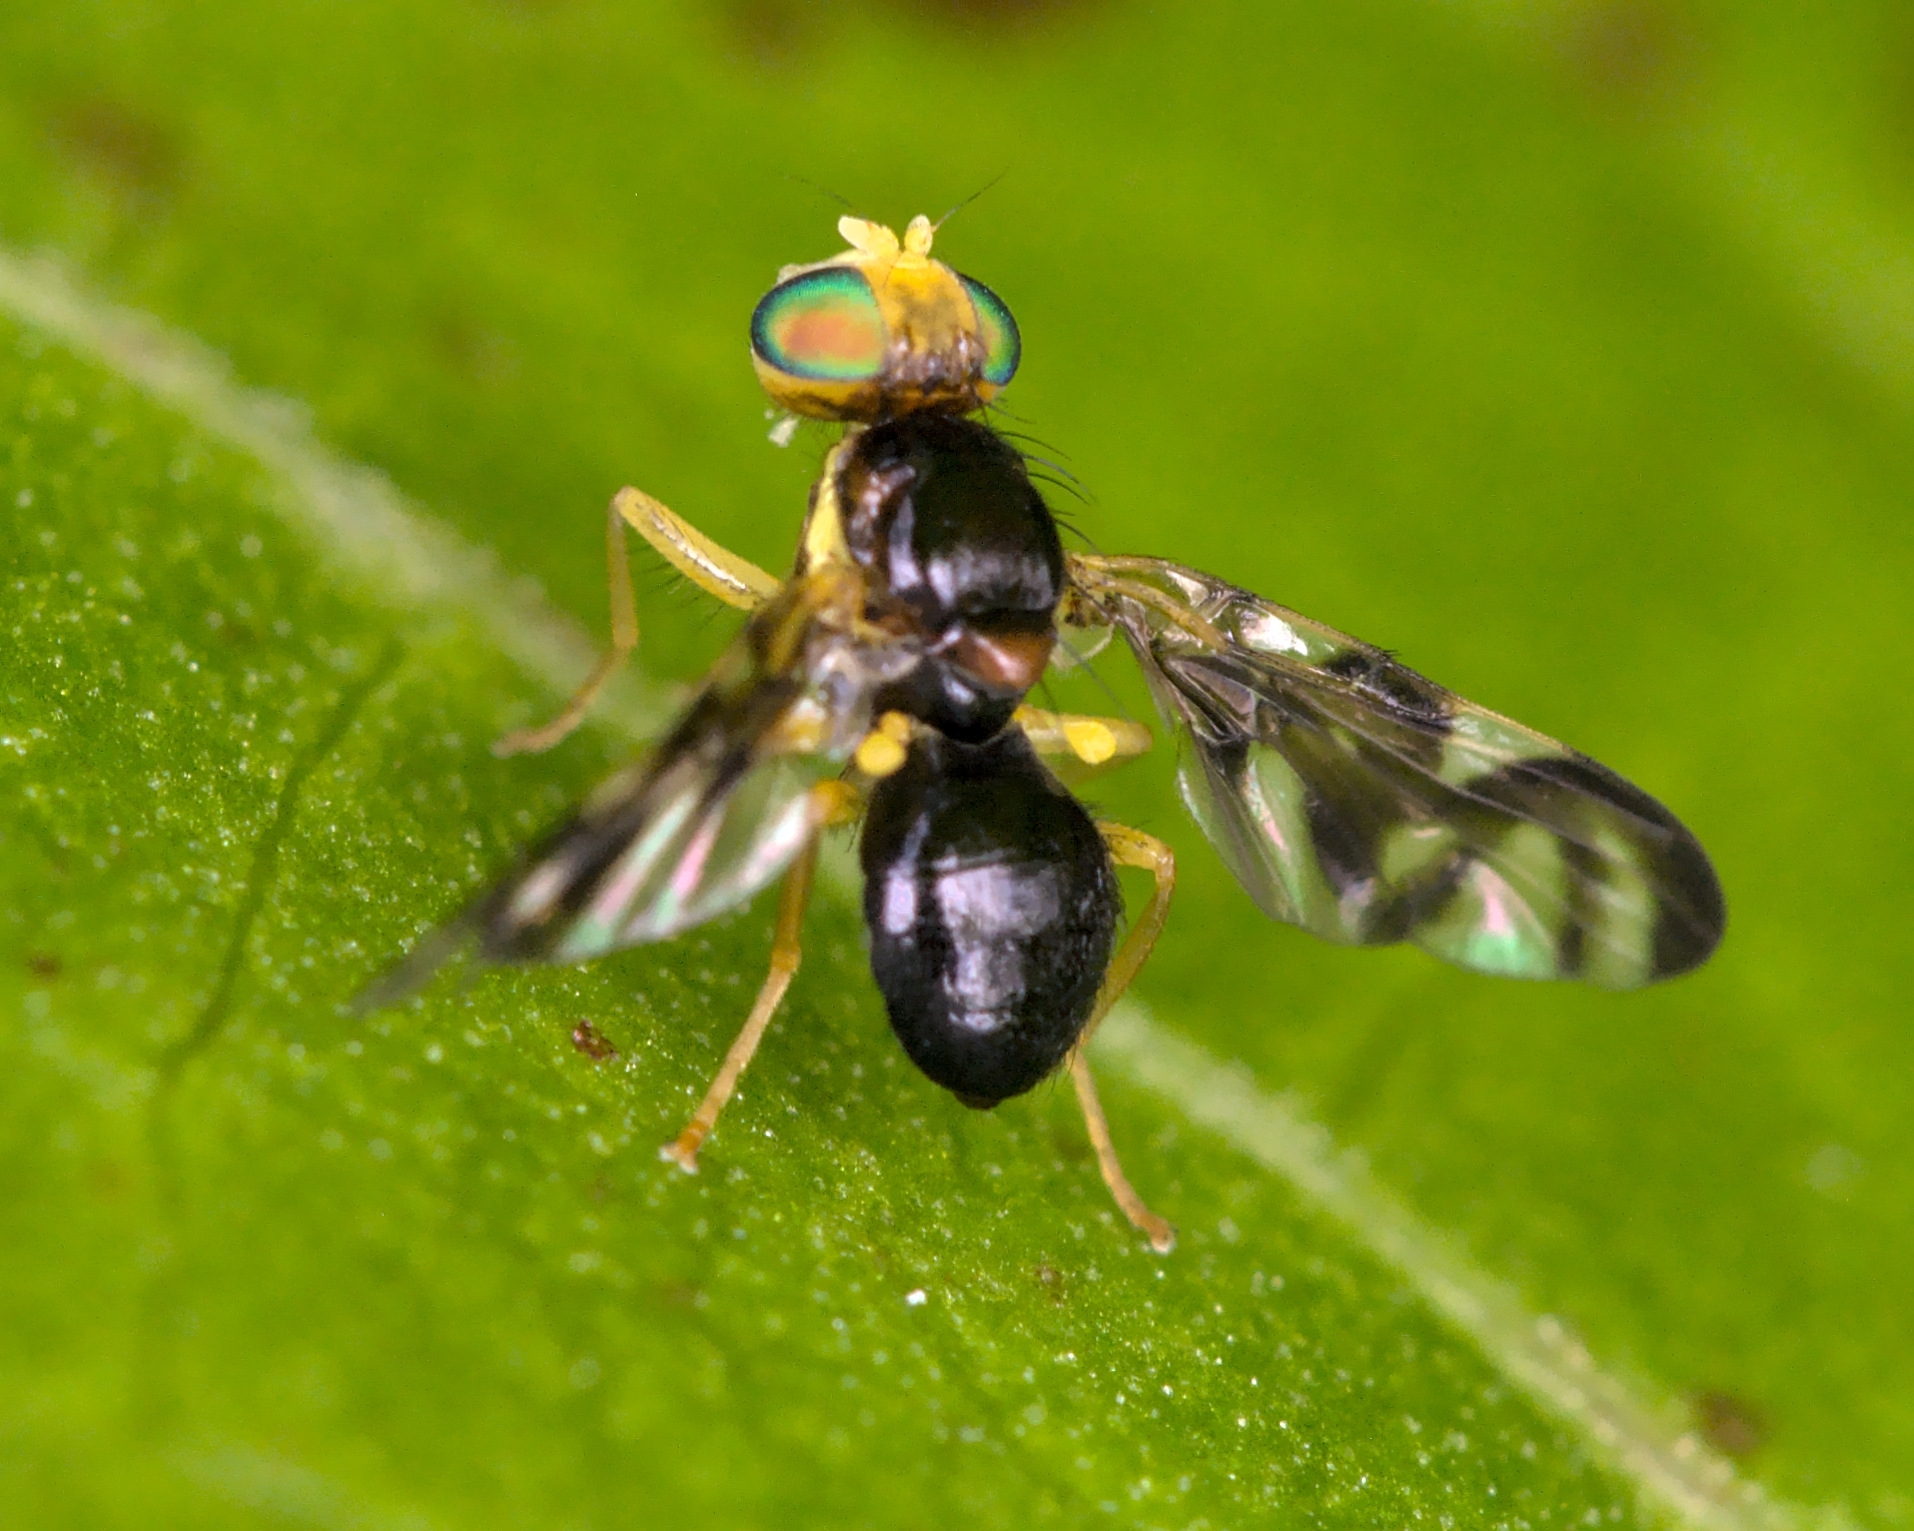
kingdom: Animalia
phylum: Arthropoda
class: Insecta
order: Diptera
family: Tephritidae
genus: Euleia
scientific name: Euleia heraclei
